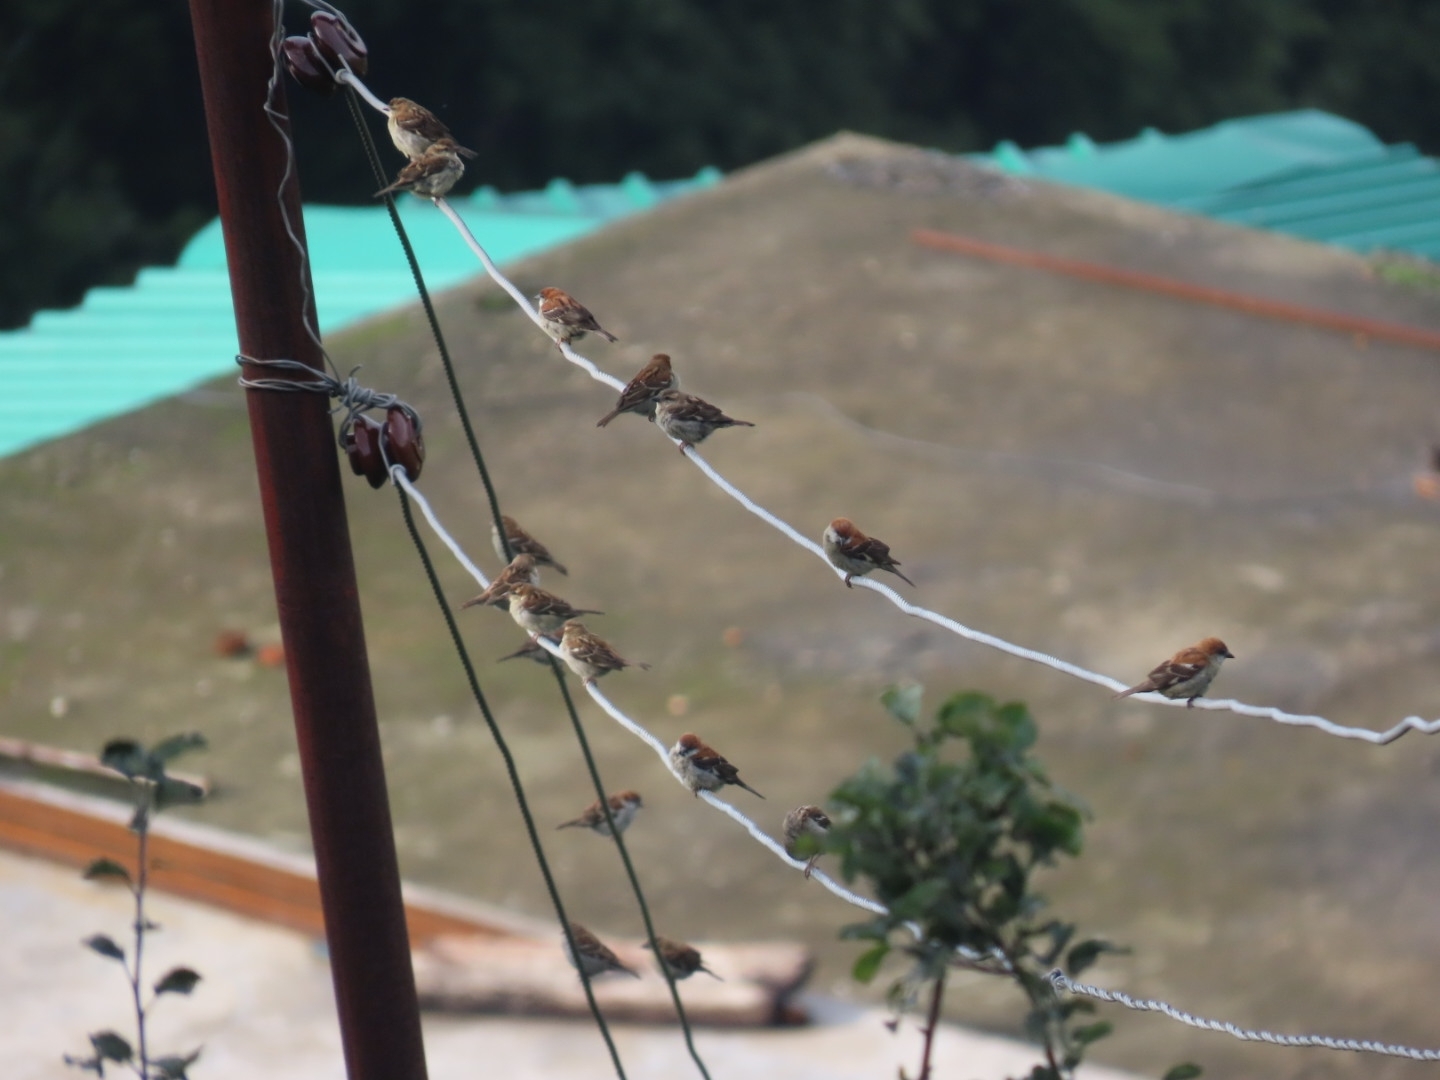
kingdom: Animalia
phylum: Chordata
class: Aves
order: Passeriformes
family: Passeridae
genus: Passer
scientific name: Passer cinnamomeus
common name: Russet sparrow
